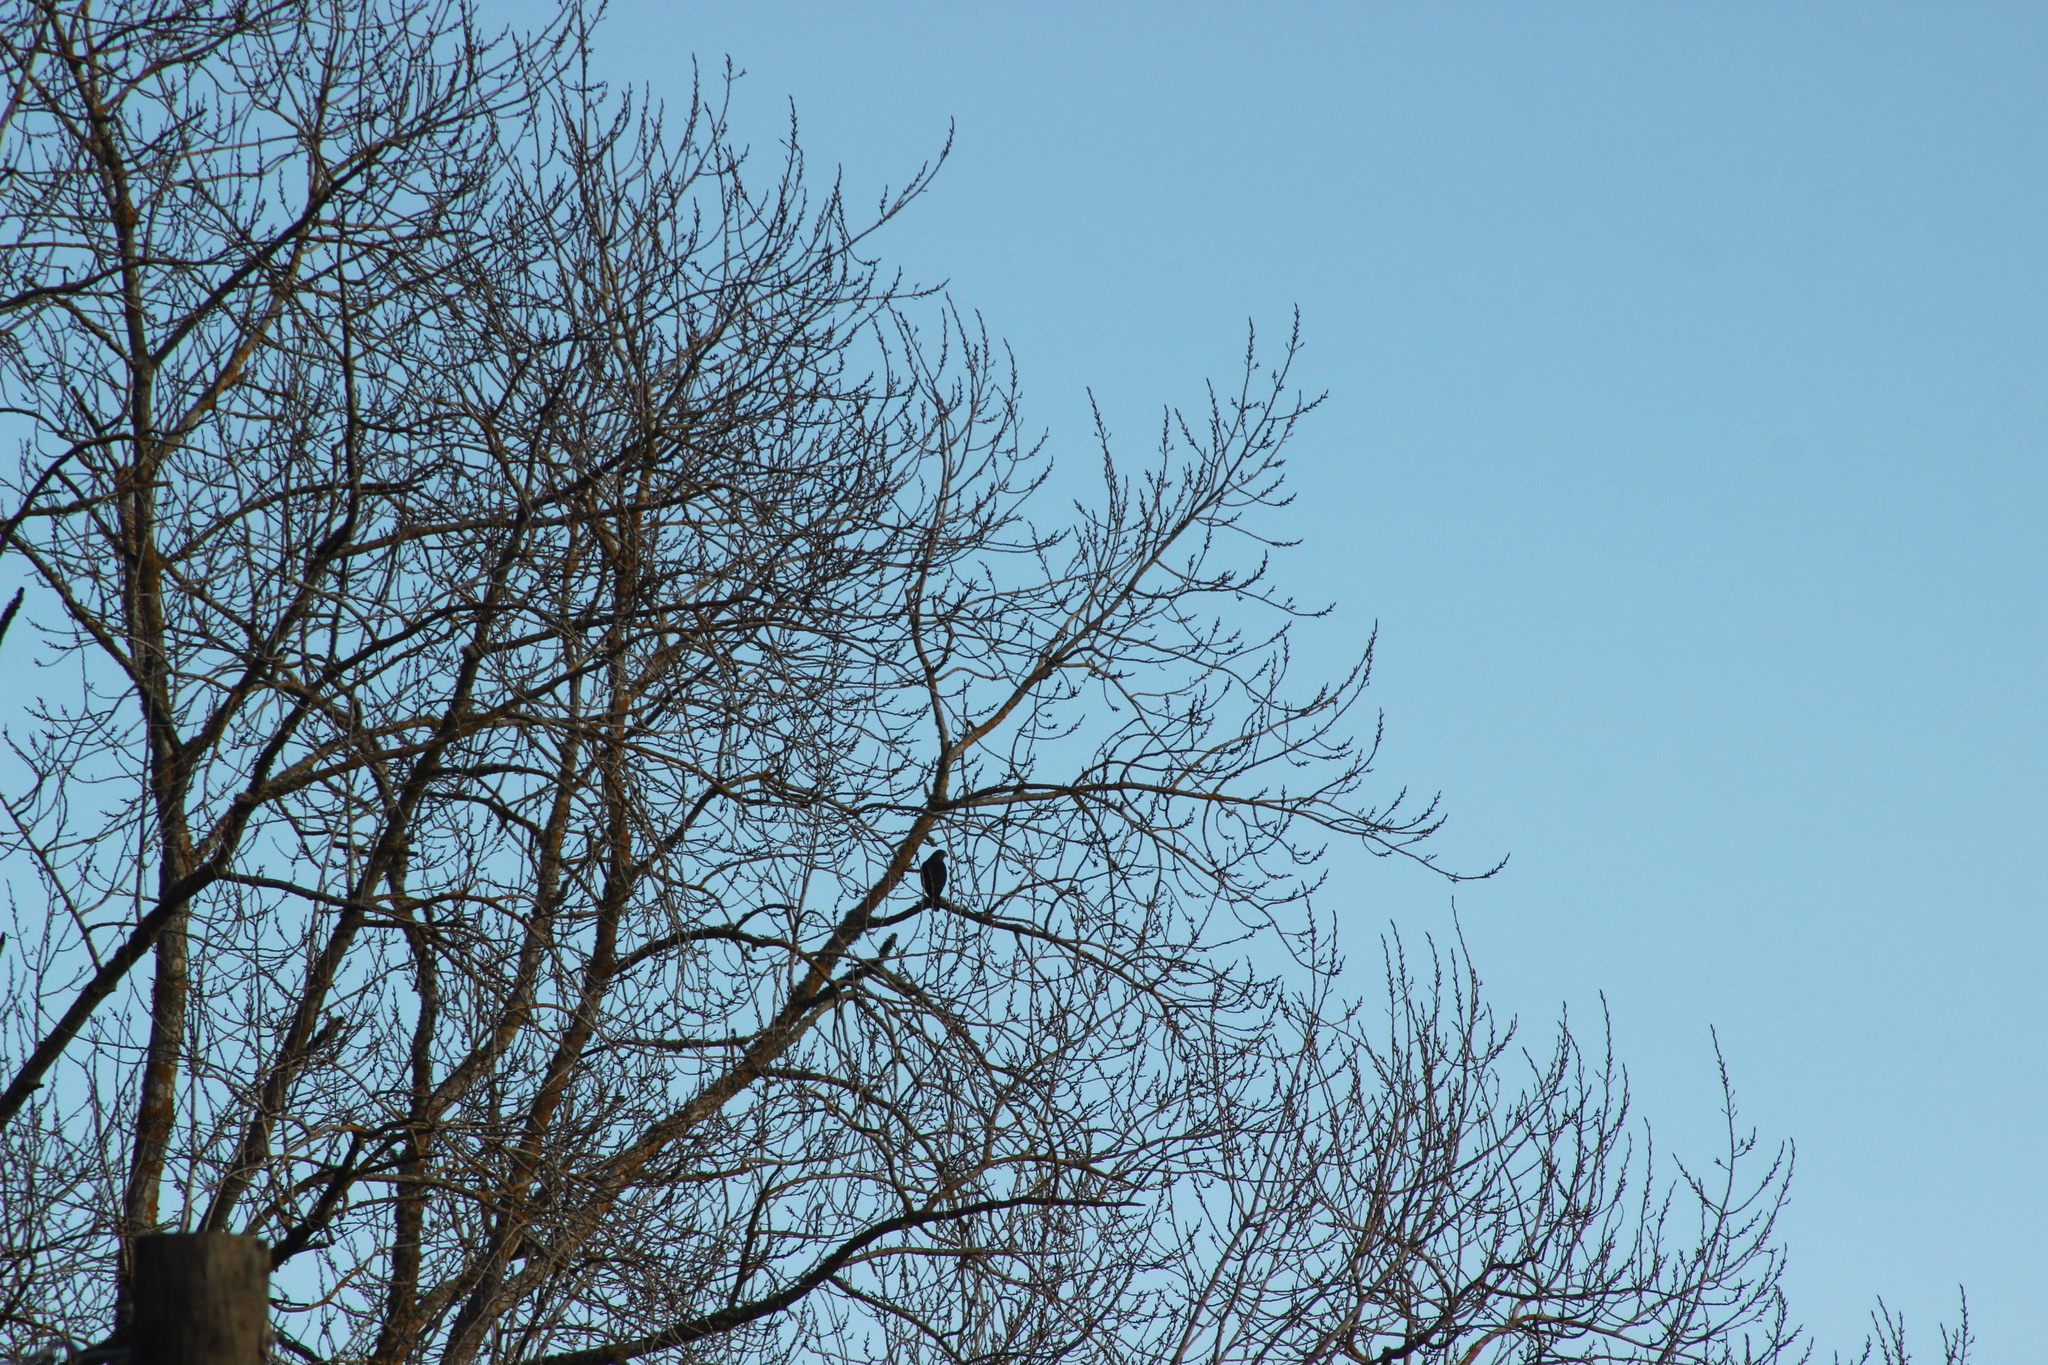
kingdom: Animalia
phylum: Chordata
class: Aves
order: Falconiformes
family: Falconidae
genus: Falco
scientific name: Falco novaeseelandiae
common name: New zealand falcon
